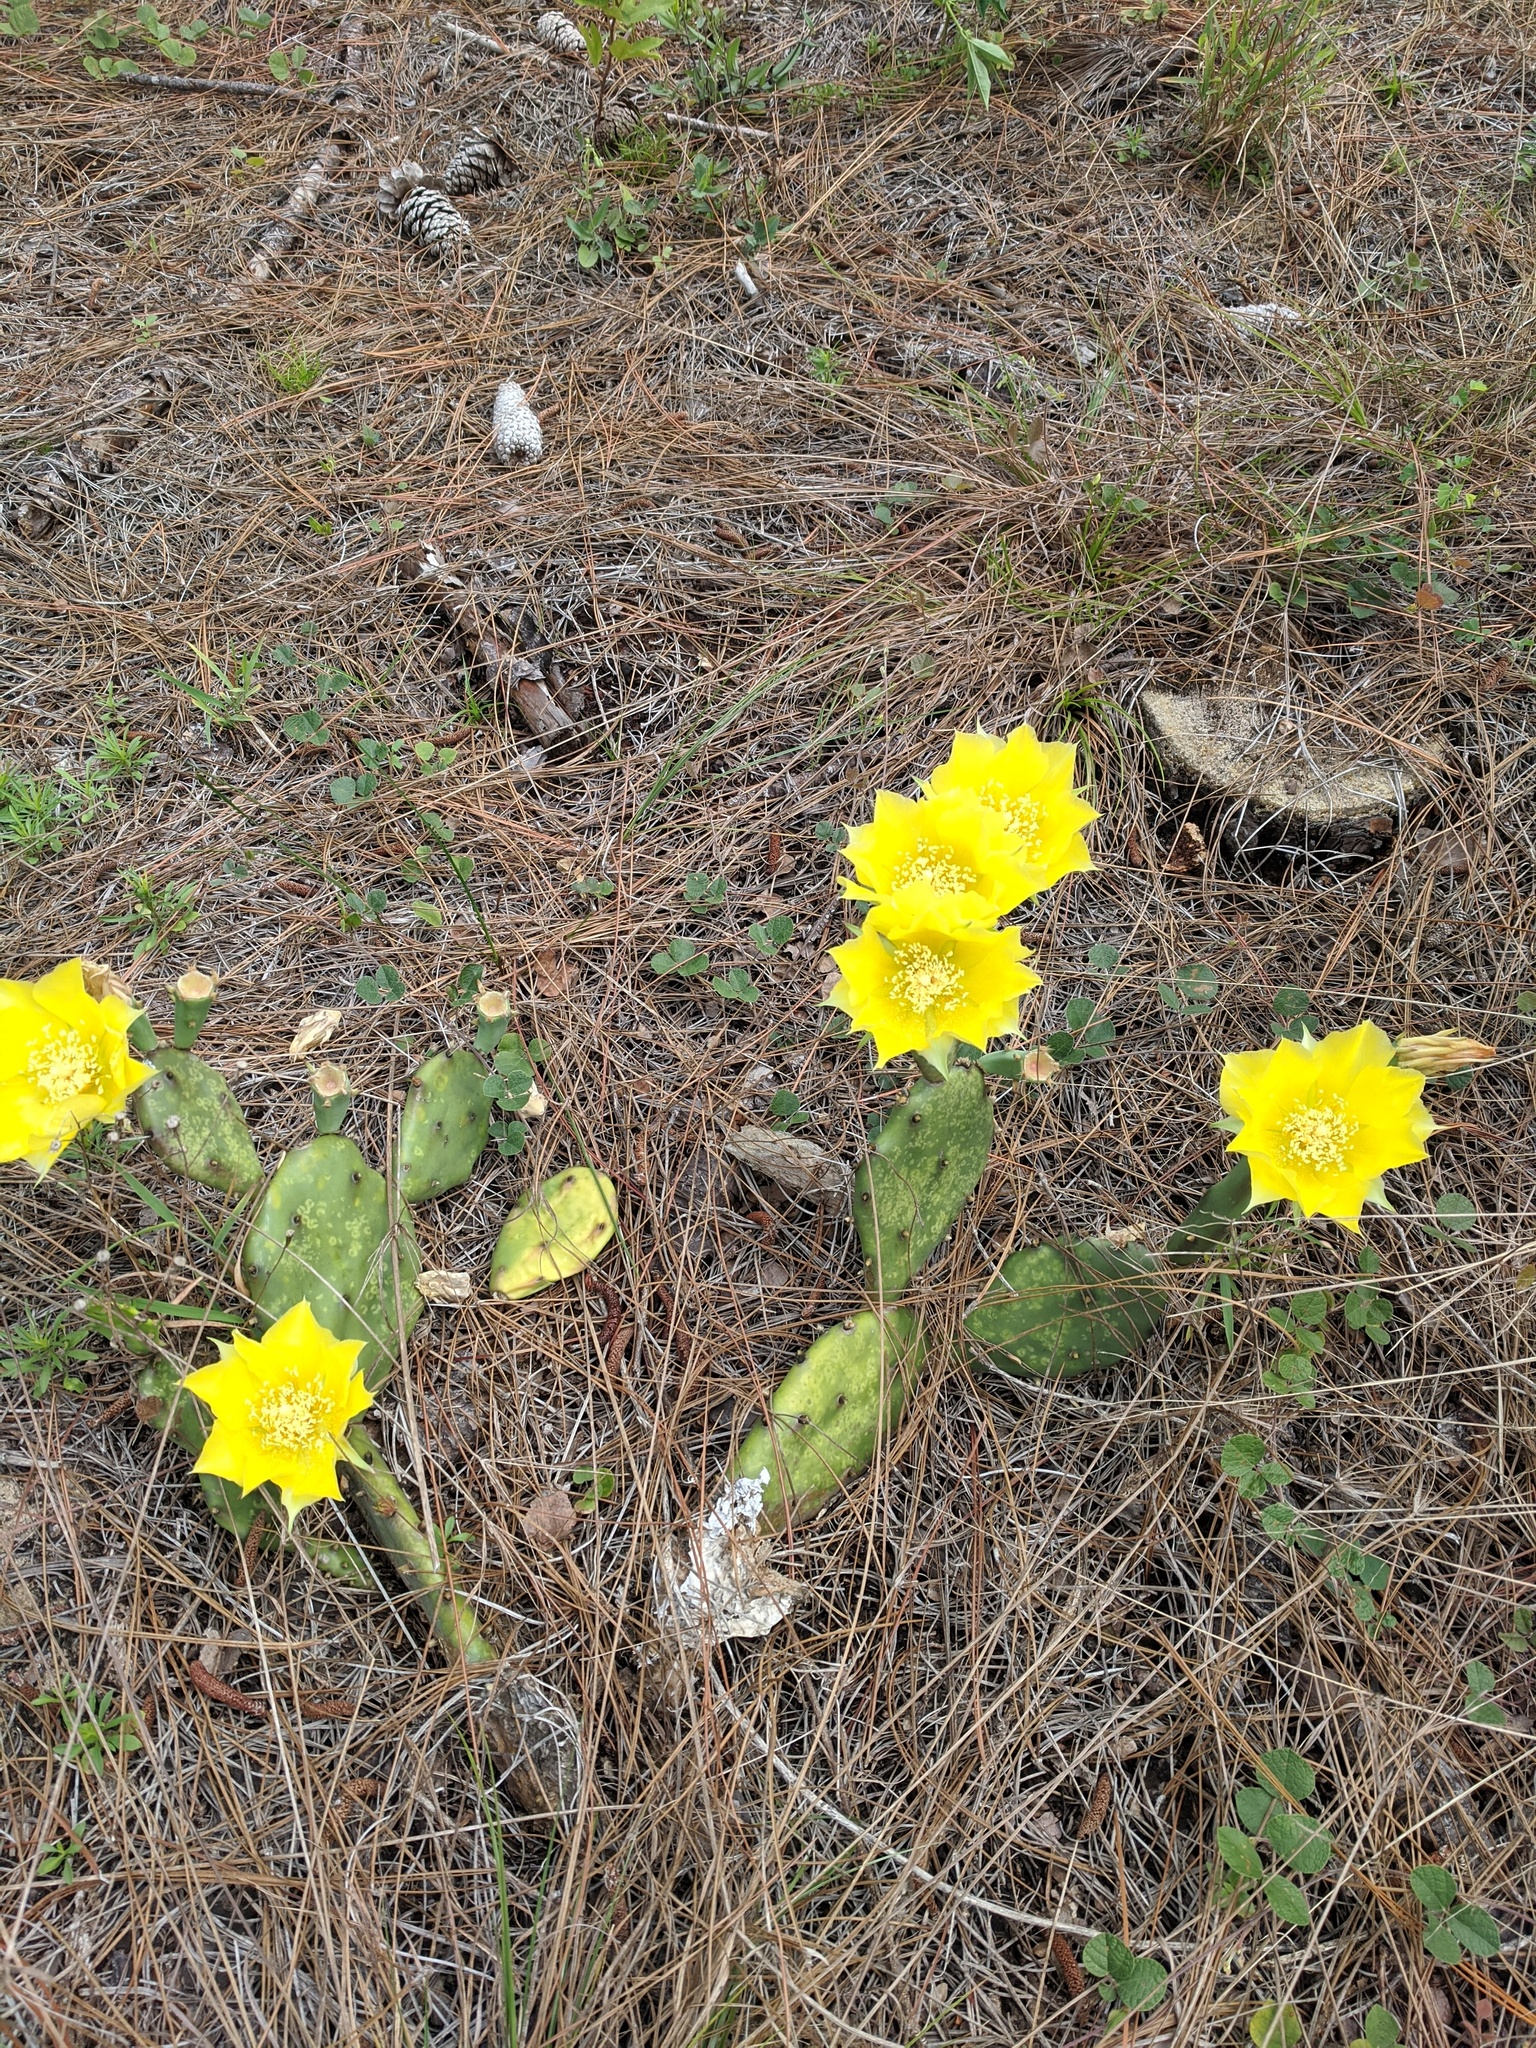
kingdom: Plantae
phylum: Tracheophyta
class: Magnoliopsida
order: Caryophyllales
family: Cactaceae
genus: Opuntia
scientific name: Opuntia austrina
